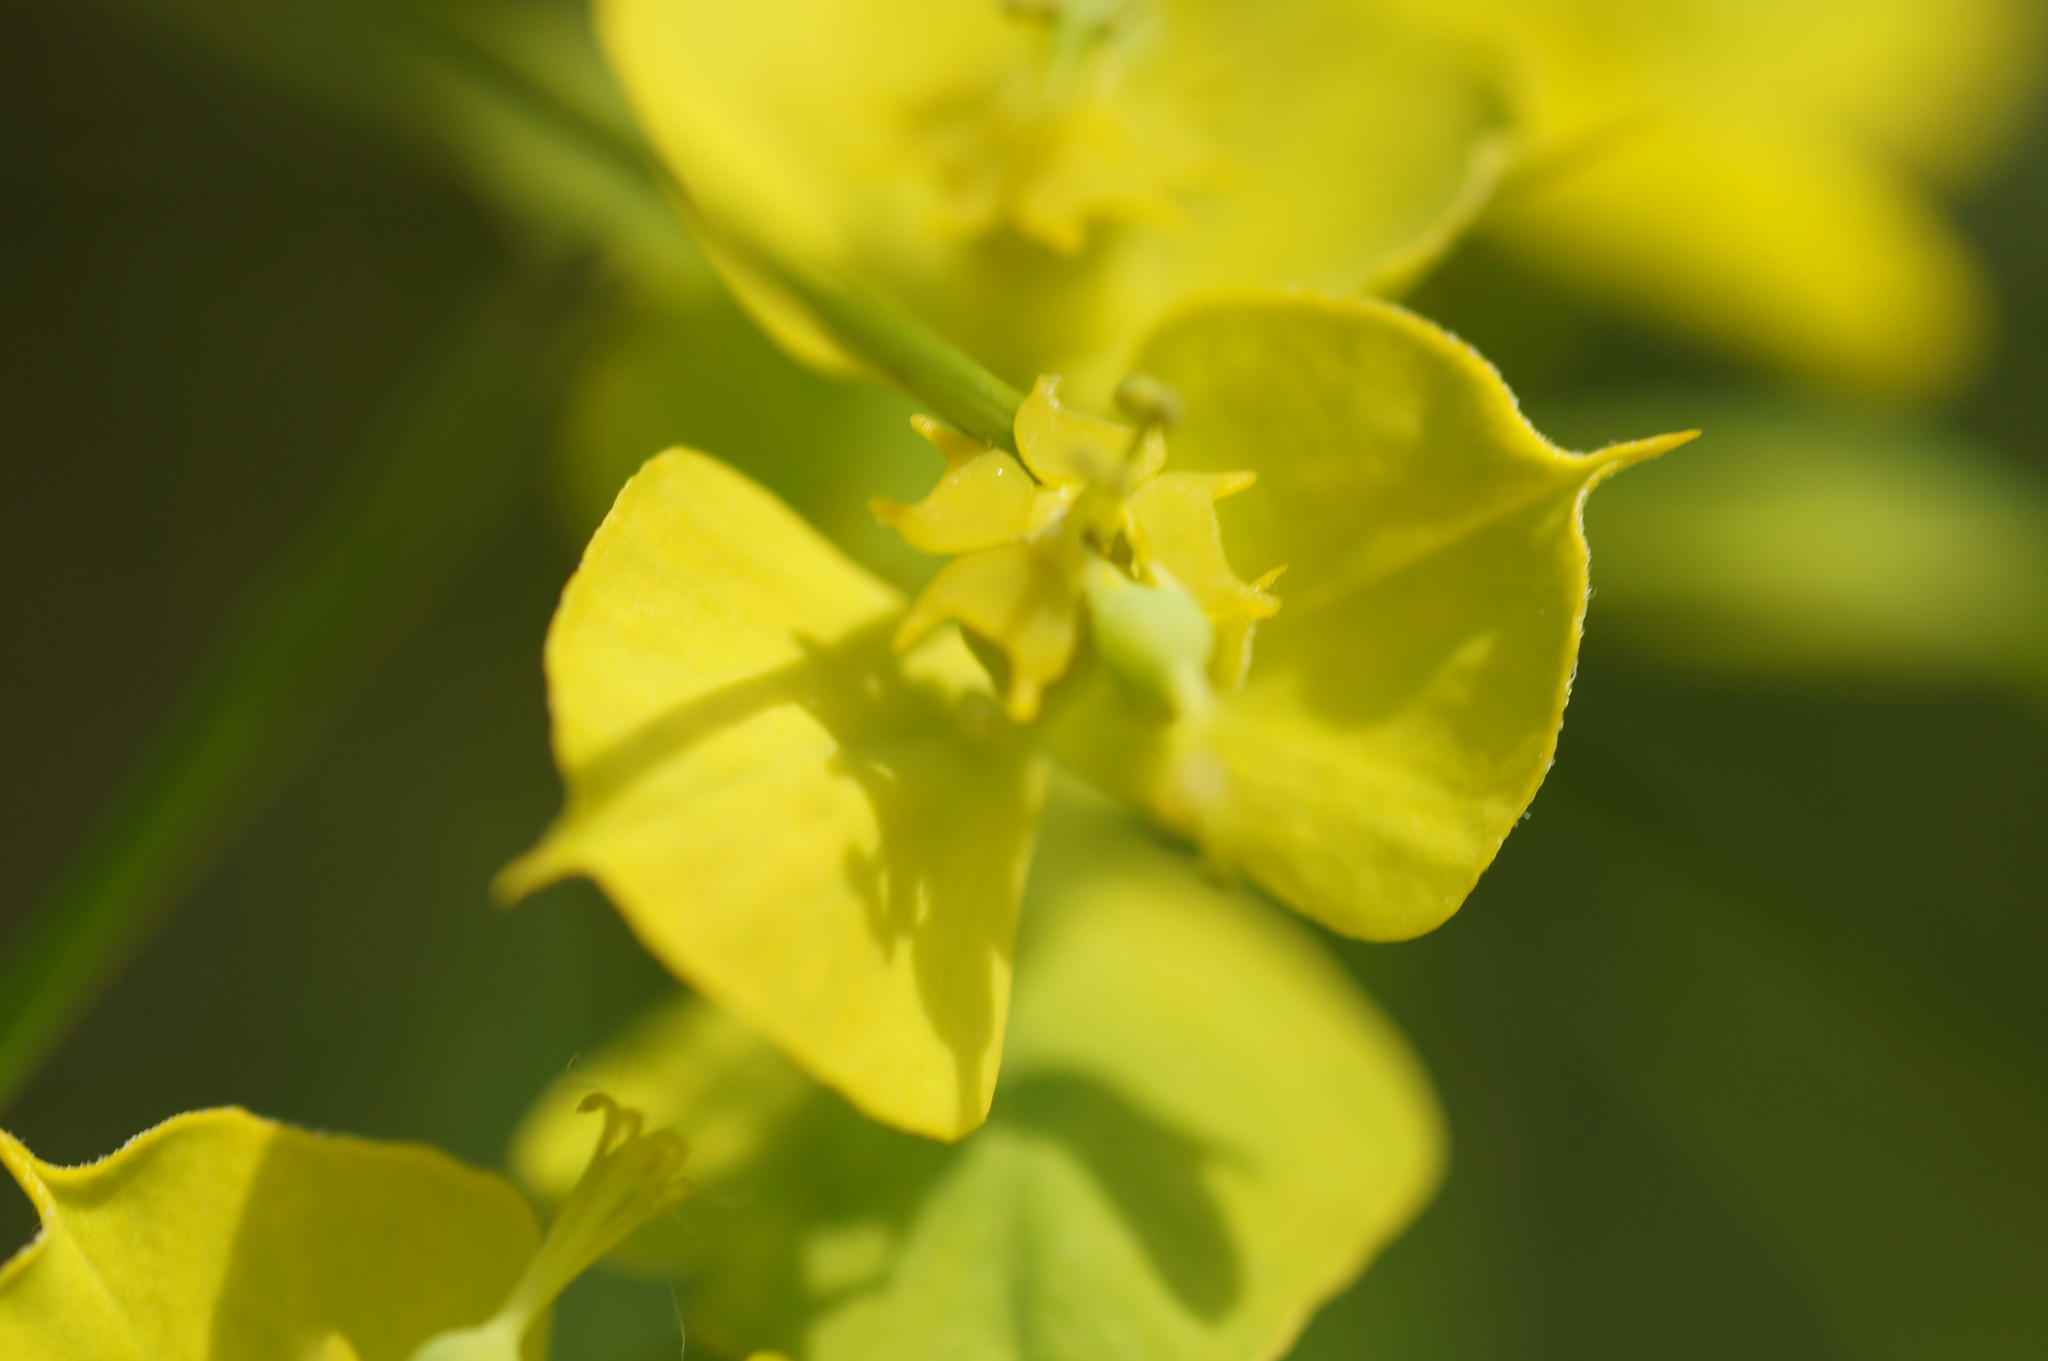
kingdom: Plantae
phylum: Tracheophyta
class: Magnoliopsida
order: Malpighiales
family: Euphorbiaceae
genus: Euphorbia
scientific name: Euphorbia virgata
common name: Leafy spurge
